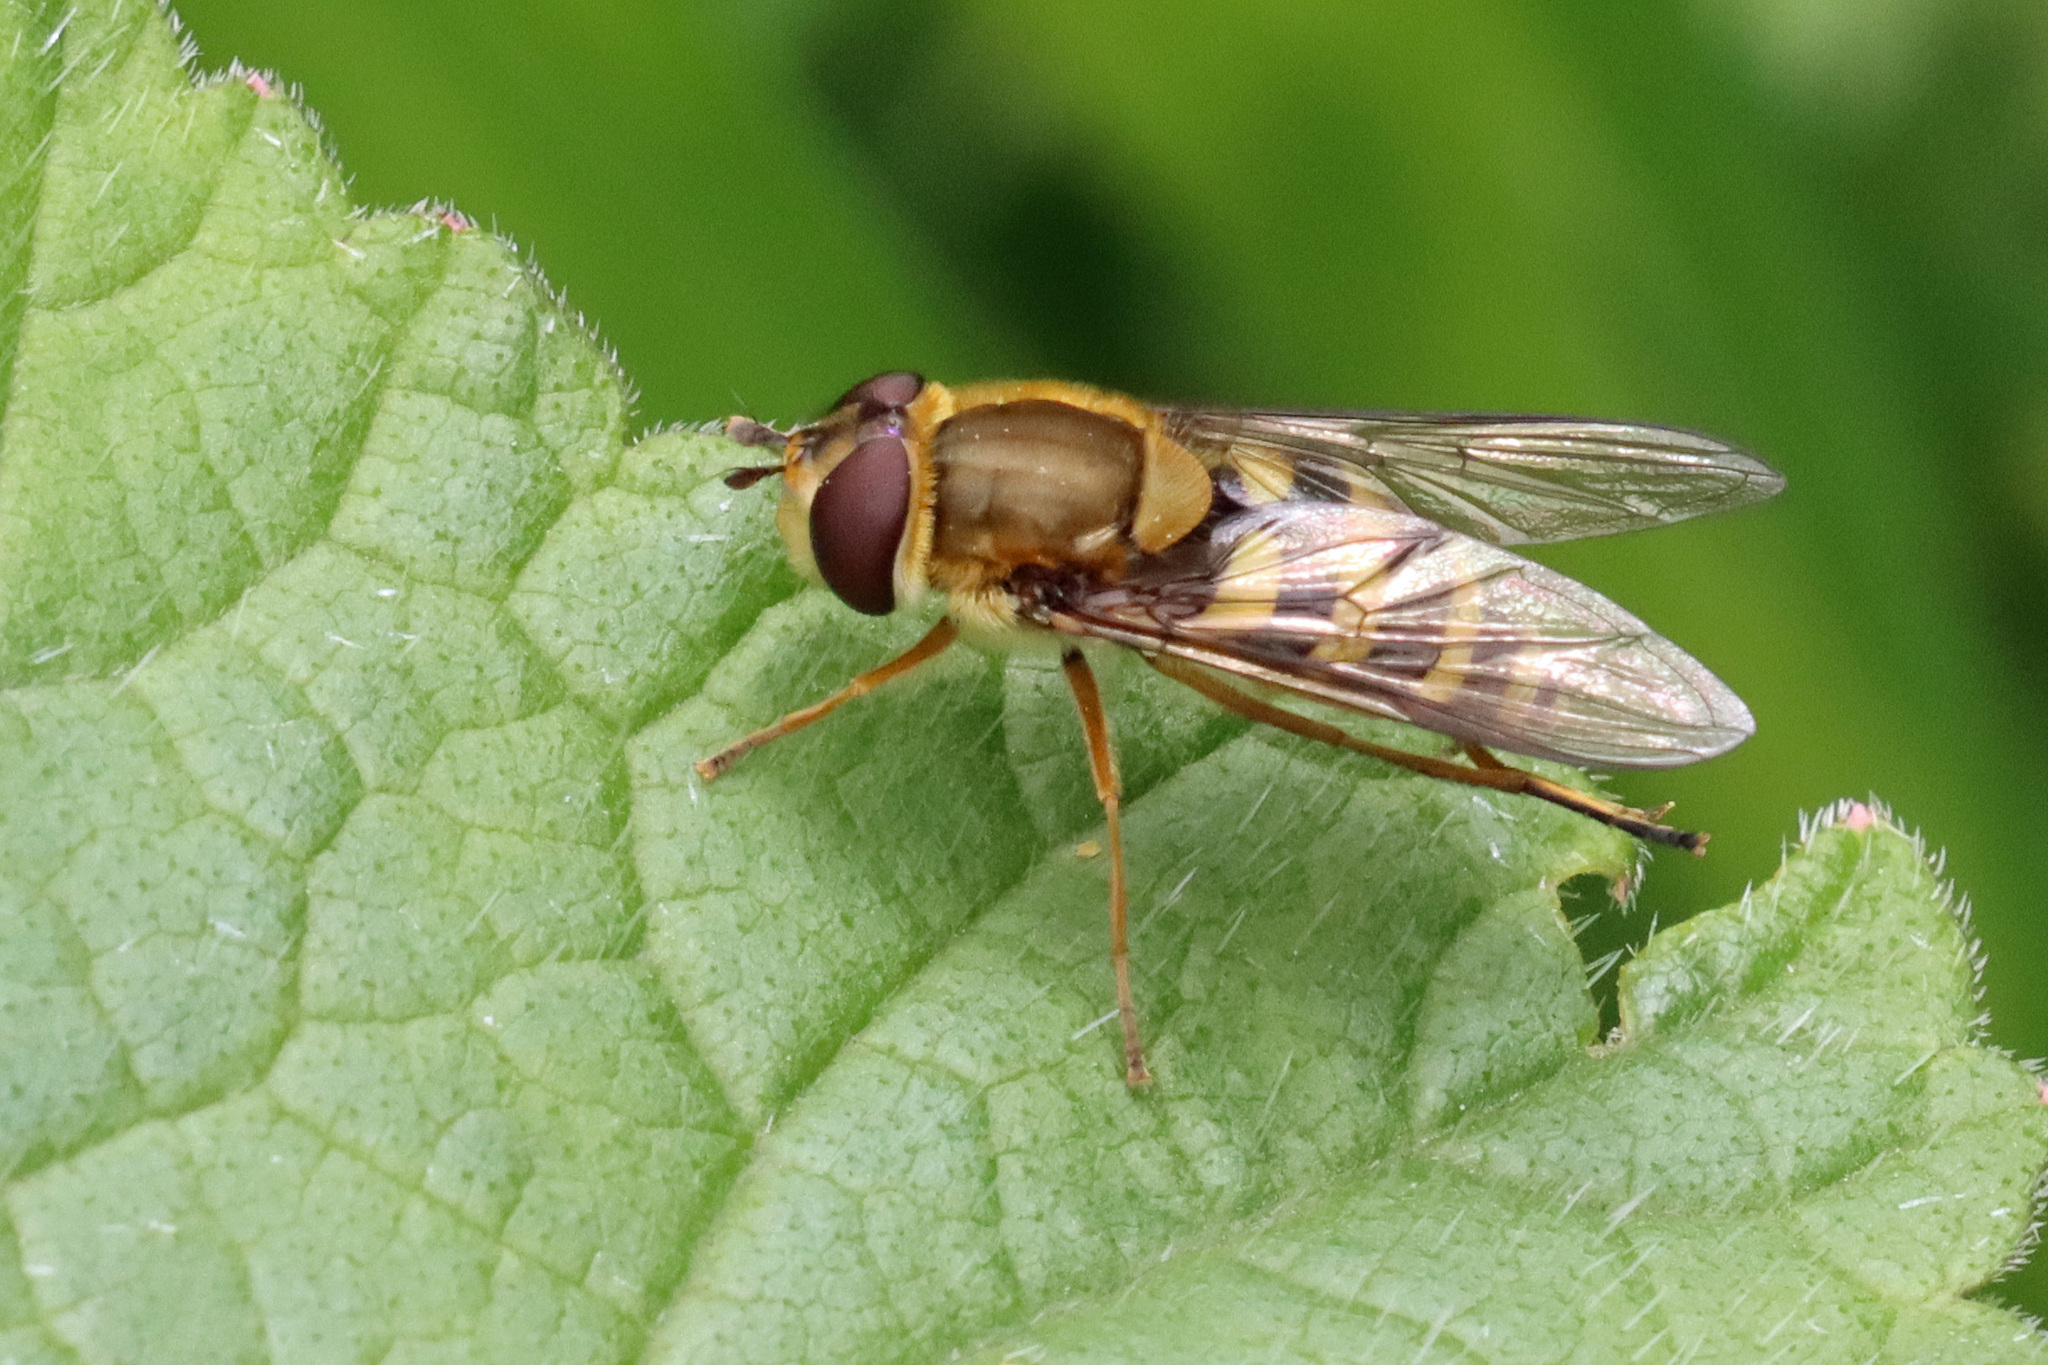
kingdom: Animalia
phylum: Arthropoda
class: Insecta
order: Diptera
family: Syrphidae
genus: Syrphus
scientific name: Syrphus ribesii
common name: Common flower fly
